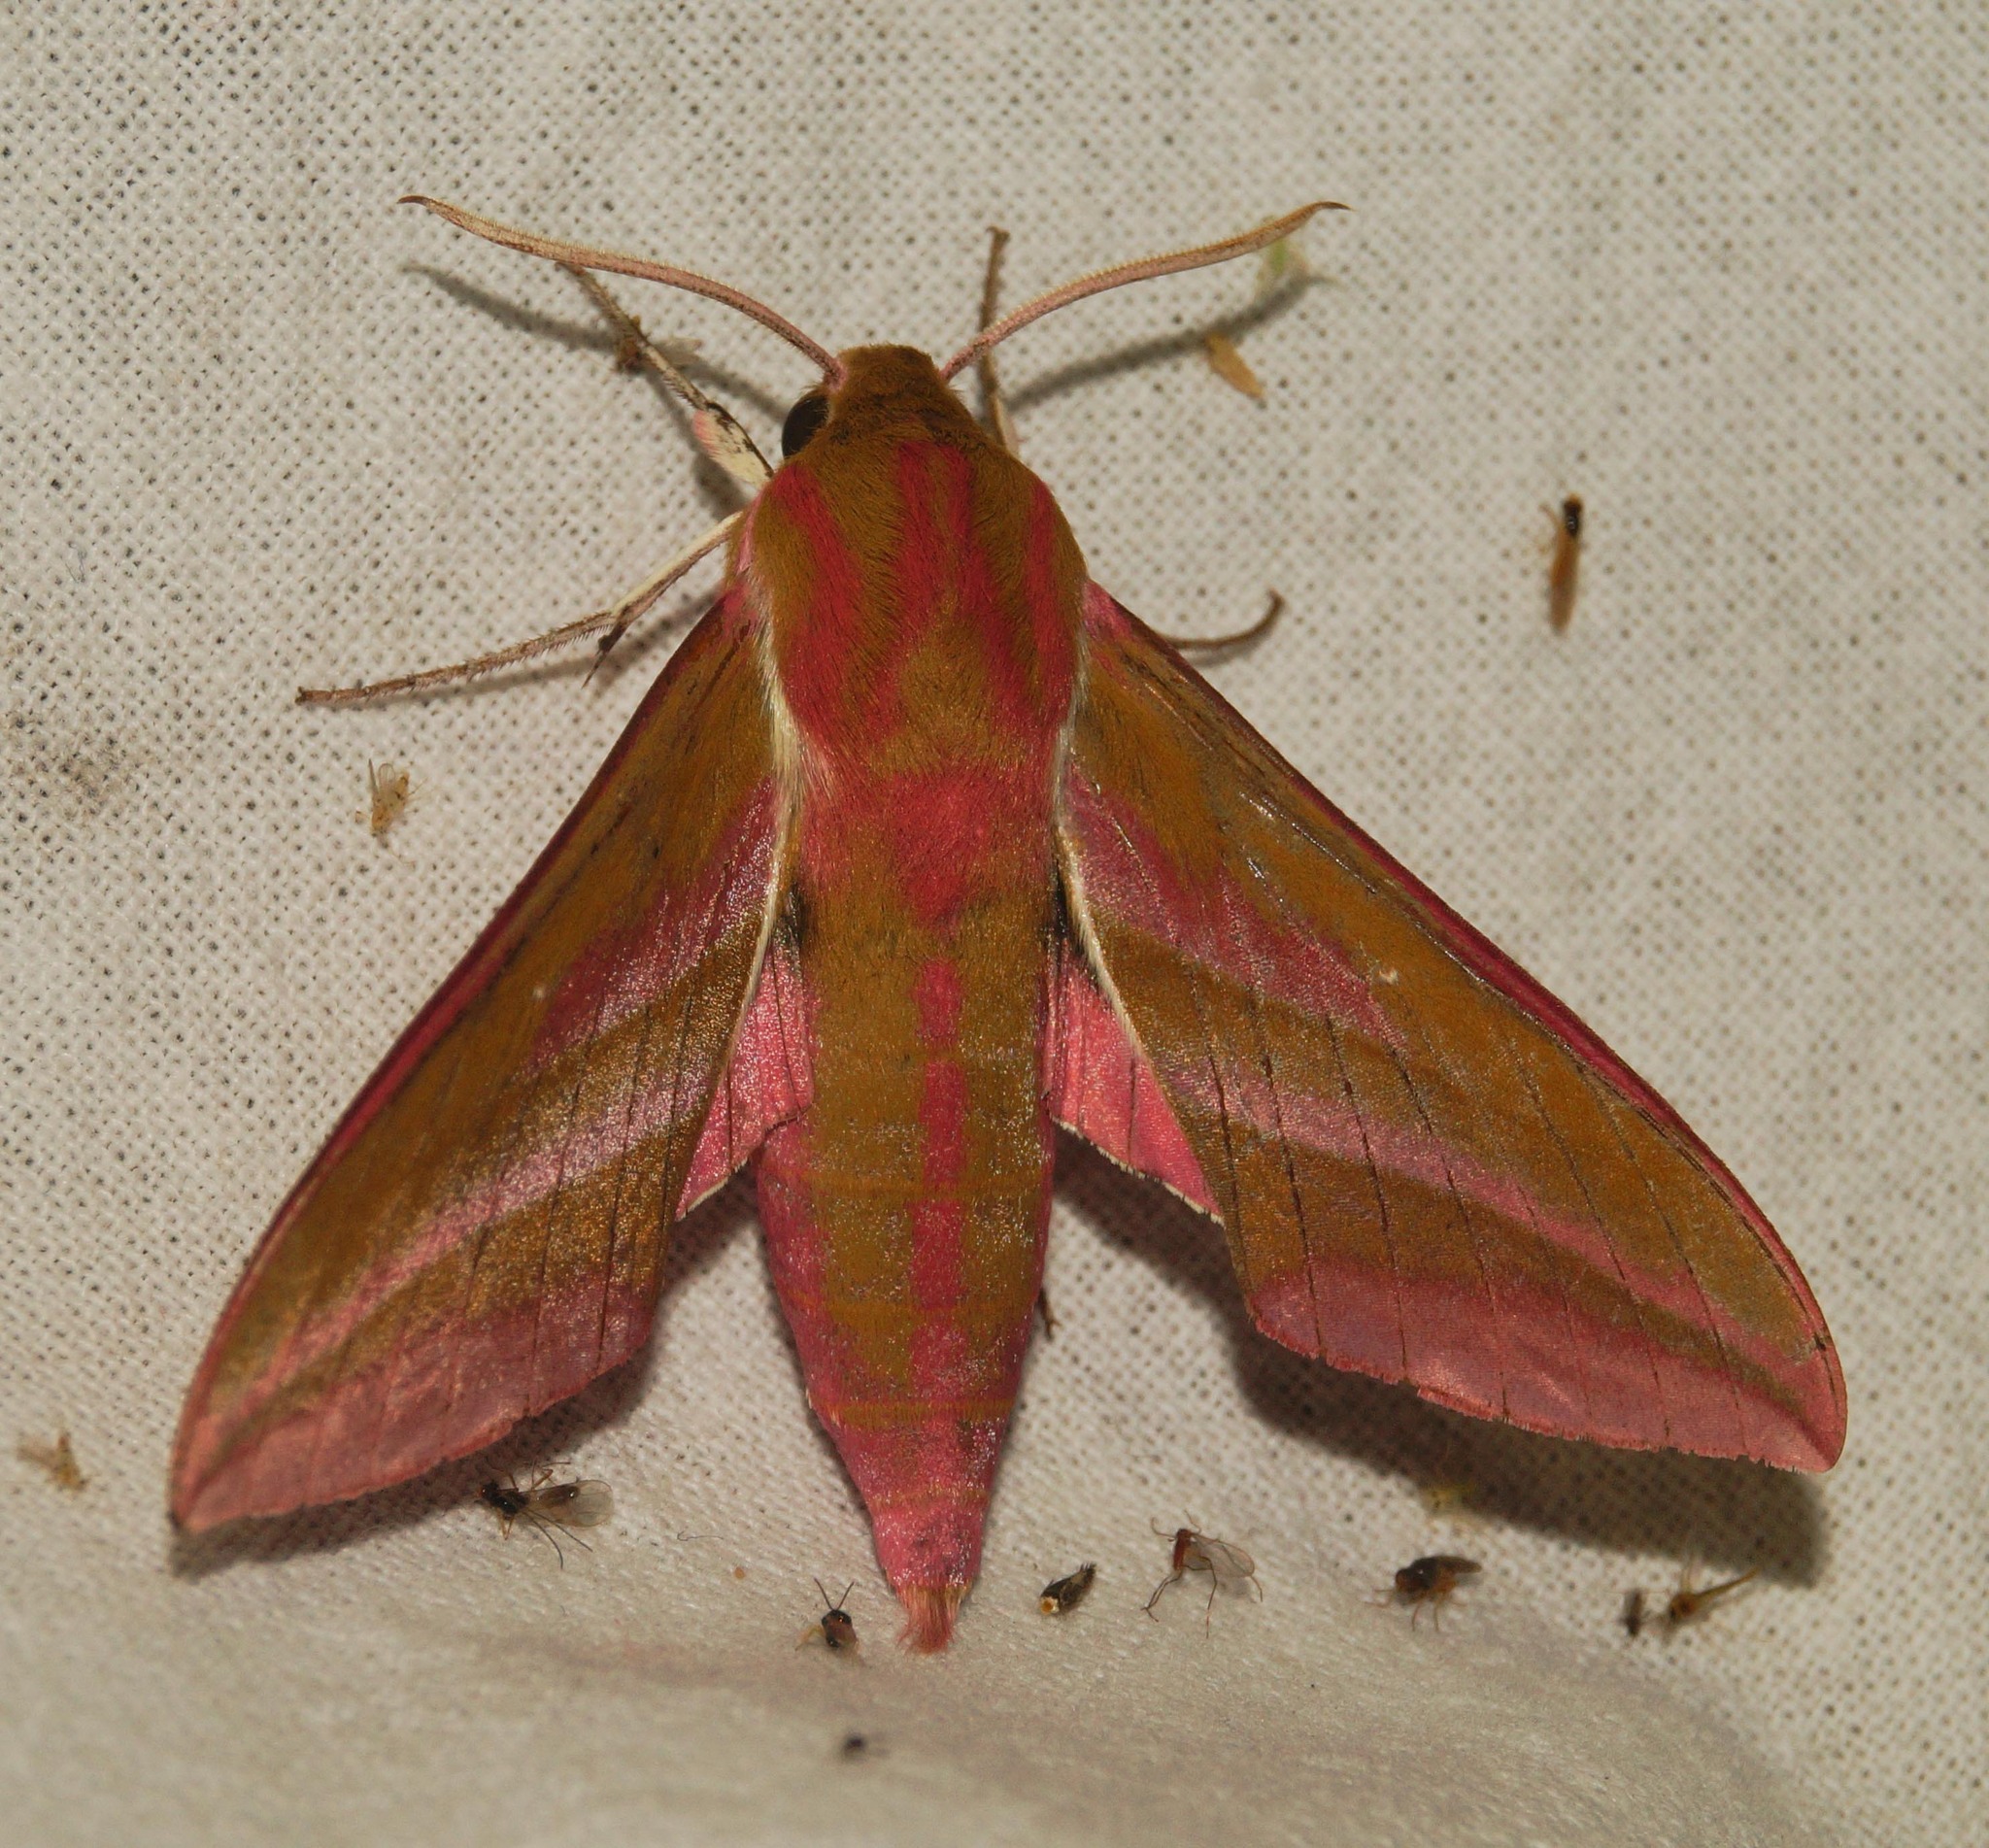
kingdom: Animalia
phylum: Arthropoda
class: Insecta
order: Lepidoptera
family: Sphingidae
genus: Deilephila
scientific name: Deilephila elpenor
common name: Elephant hawk-moth
